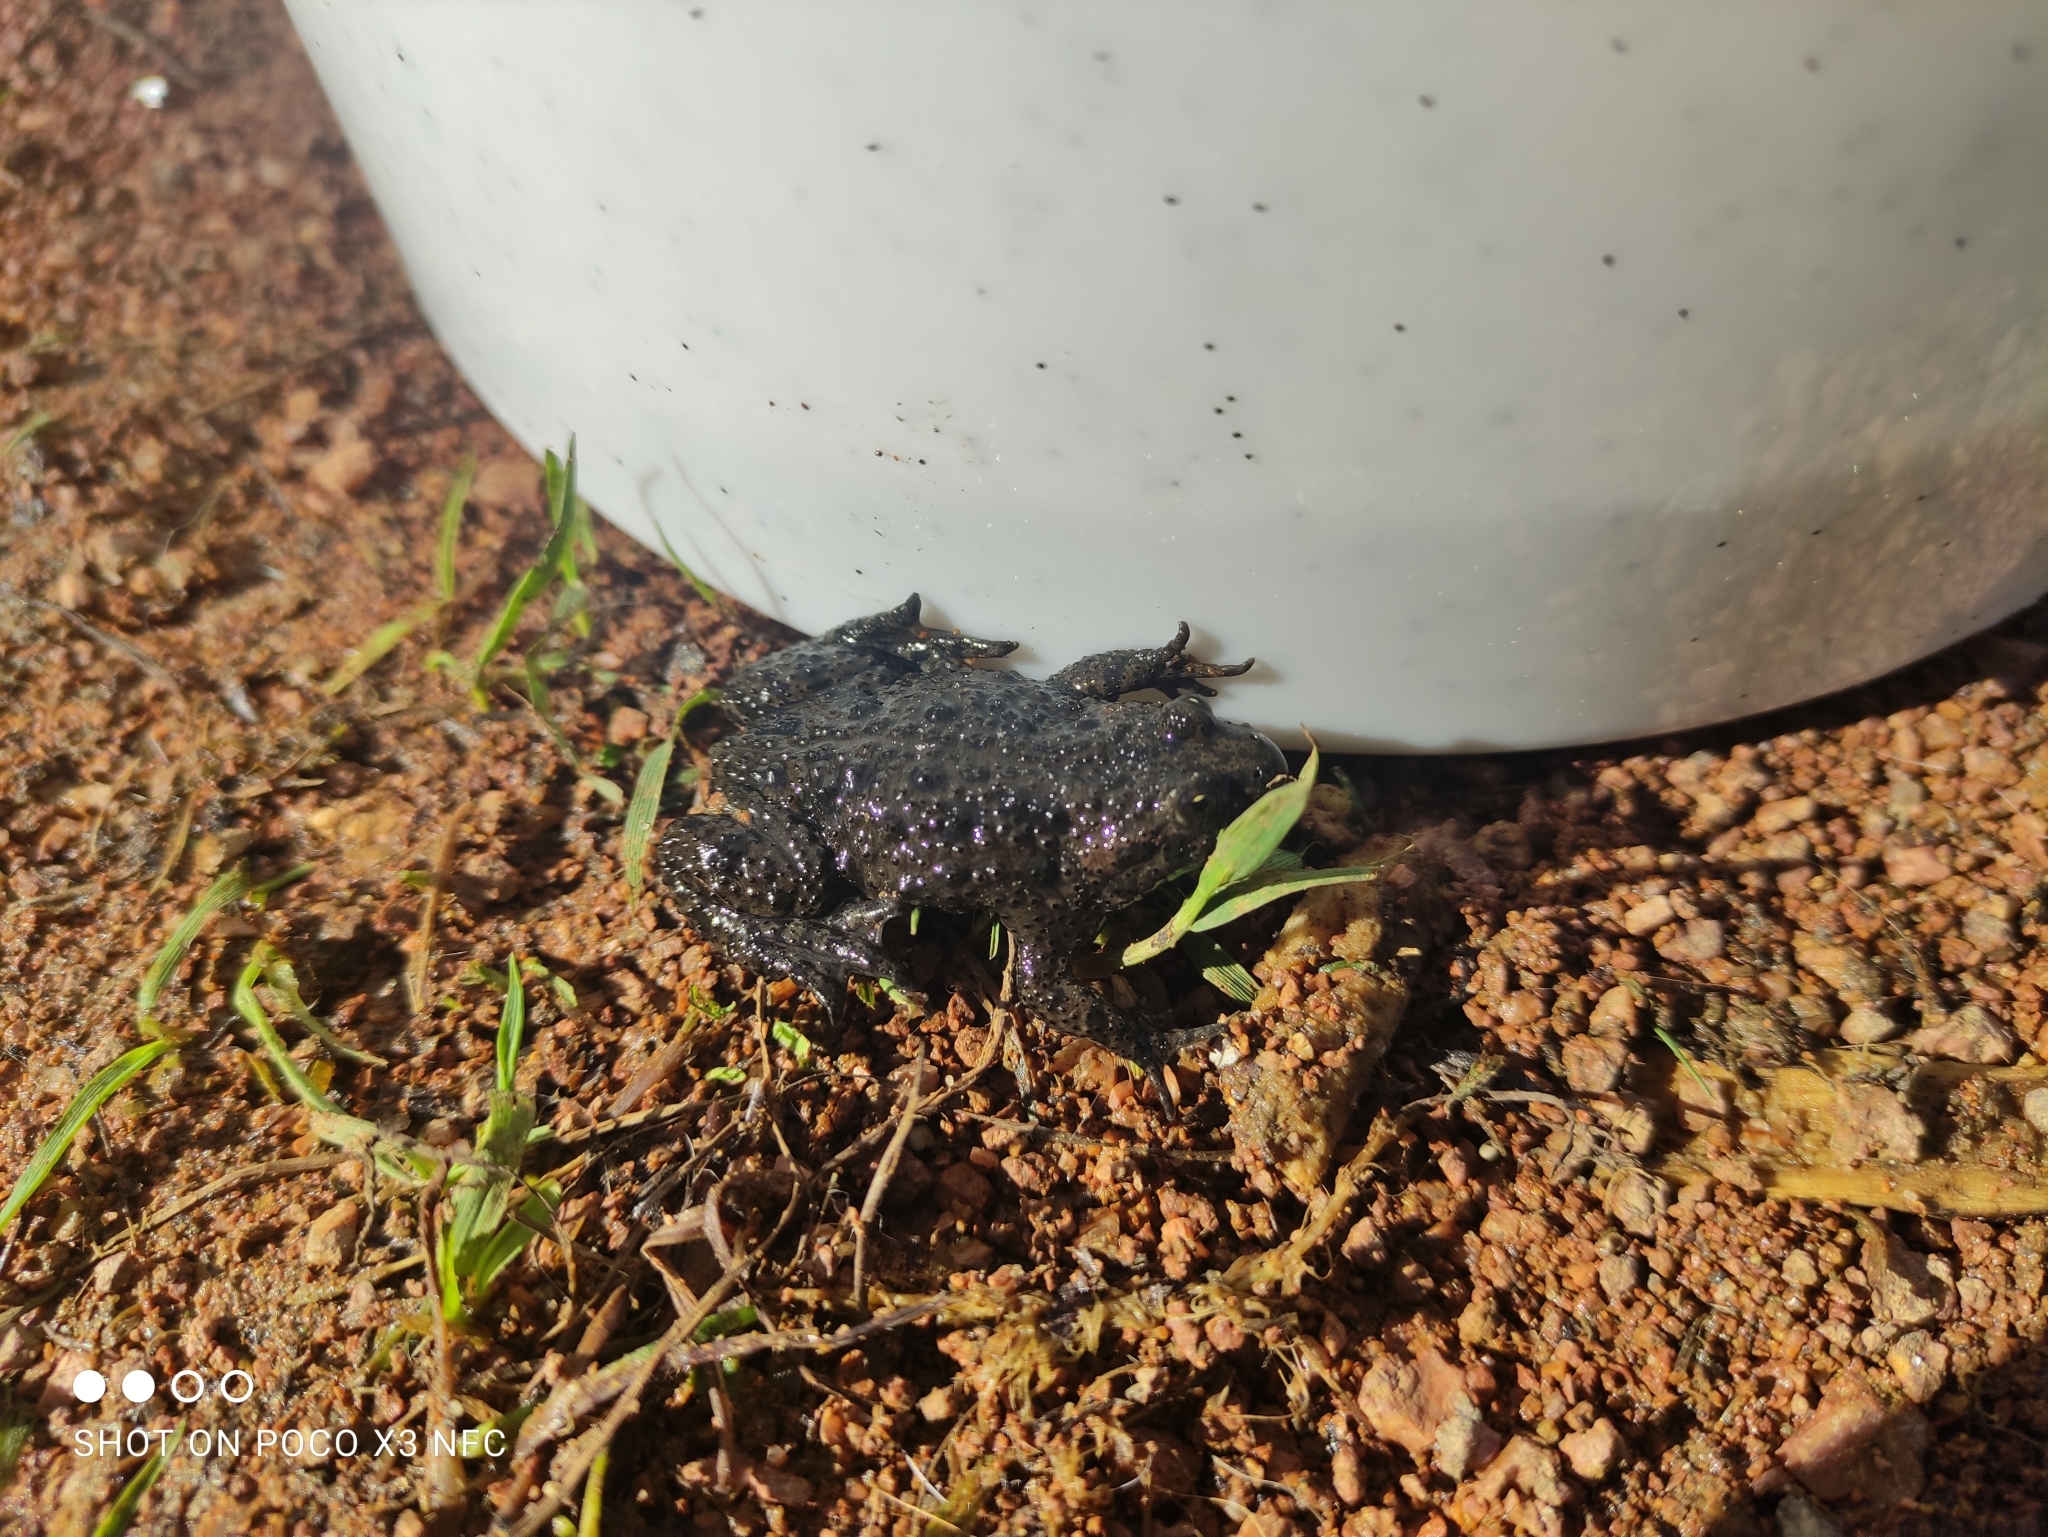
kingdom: Animalia
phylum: Chordata
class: Amphibia
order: Anura
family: Bombinatoridae
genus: Bombina
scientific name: Bombina bombina
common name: Fire-bellied toad
